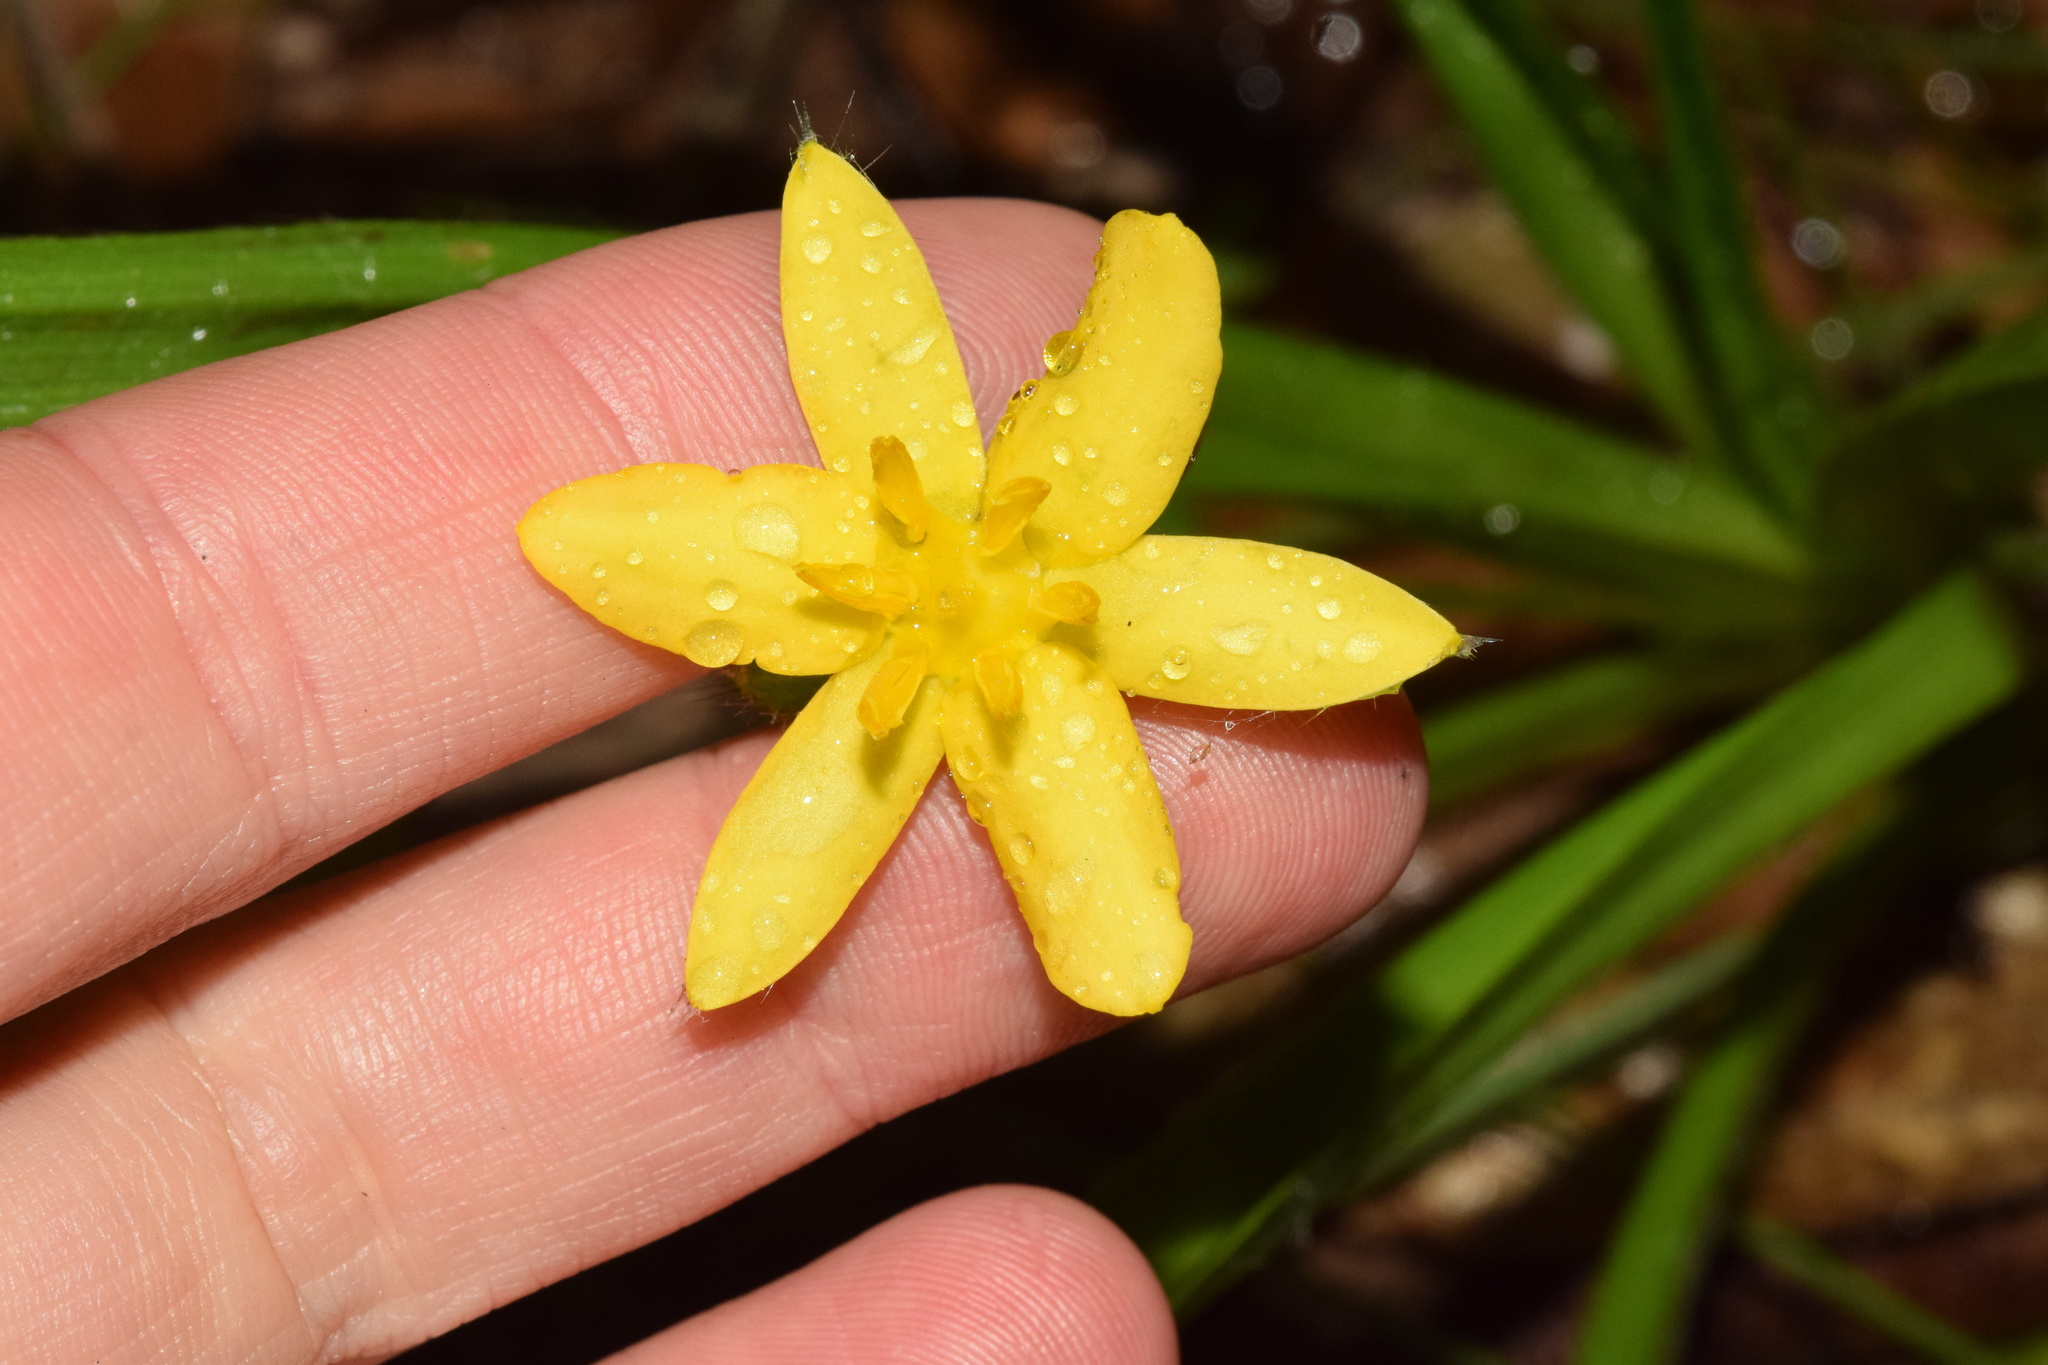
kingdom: Plantae
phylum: Tracheophyta
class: Liliopsida
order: Asparagales
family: Hypoxidaceae
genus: Hypoxis
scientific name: Hypoxis angustifolia
